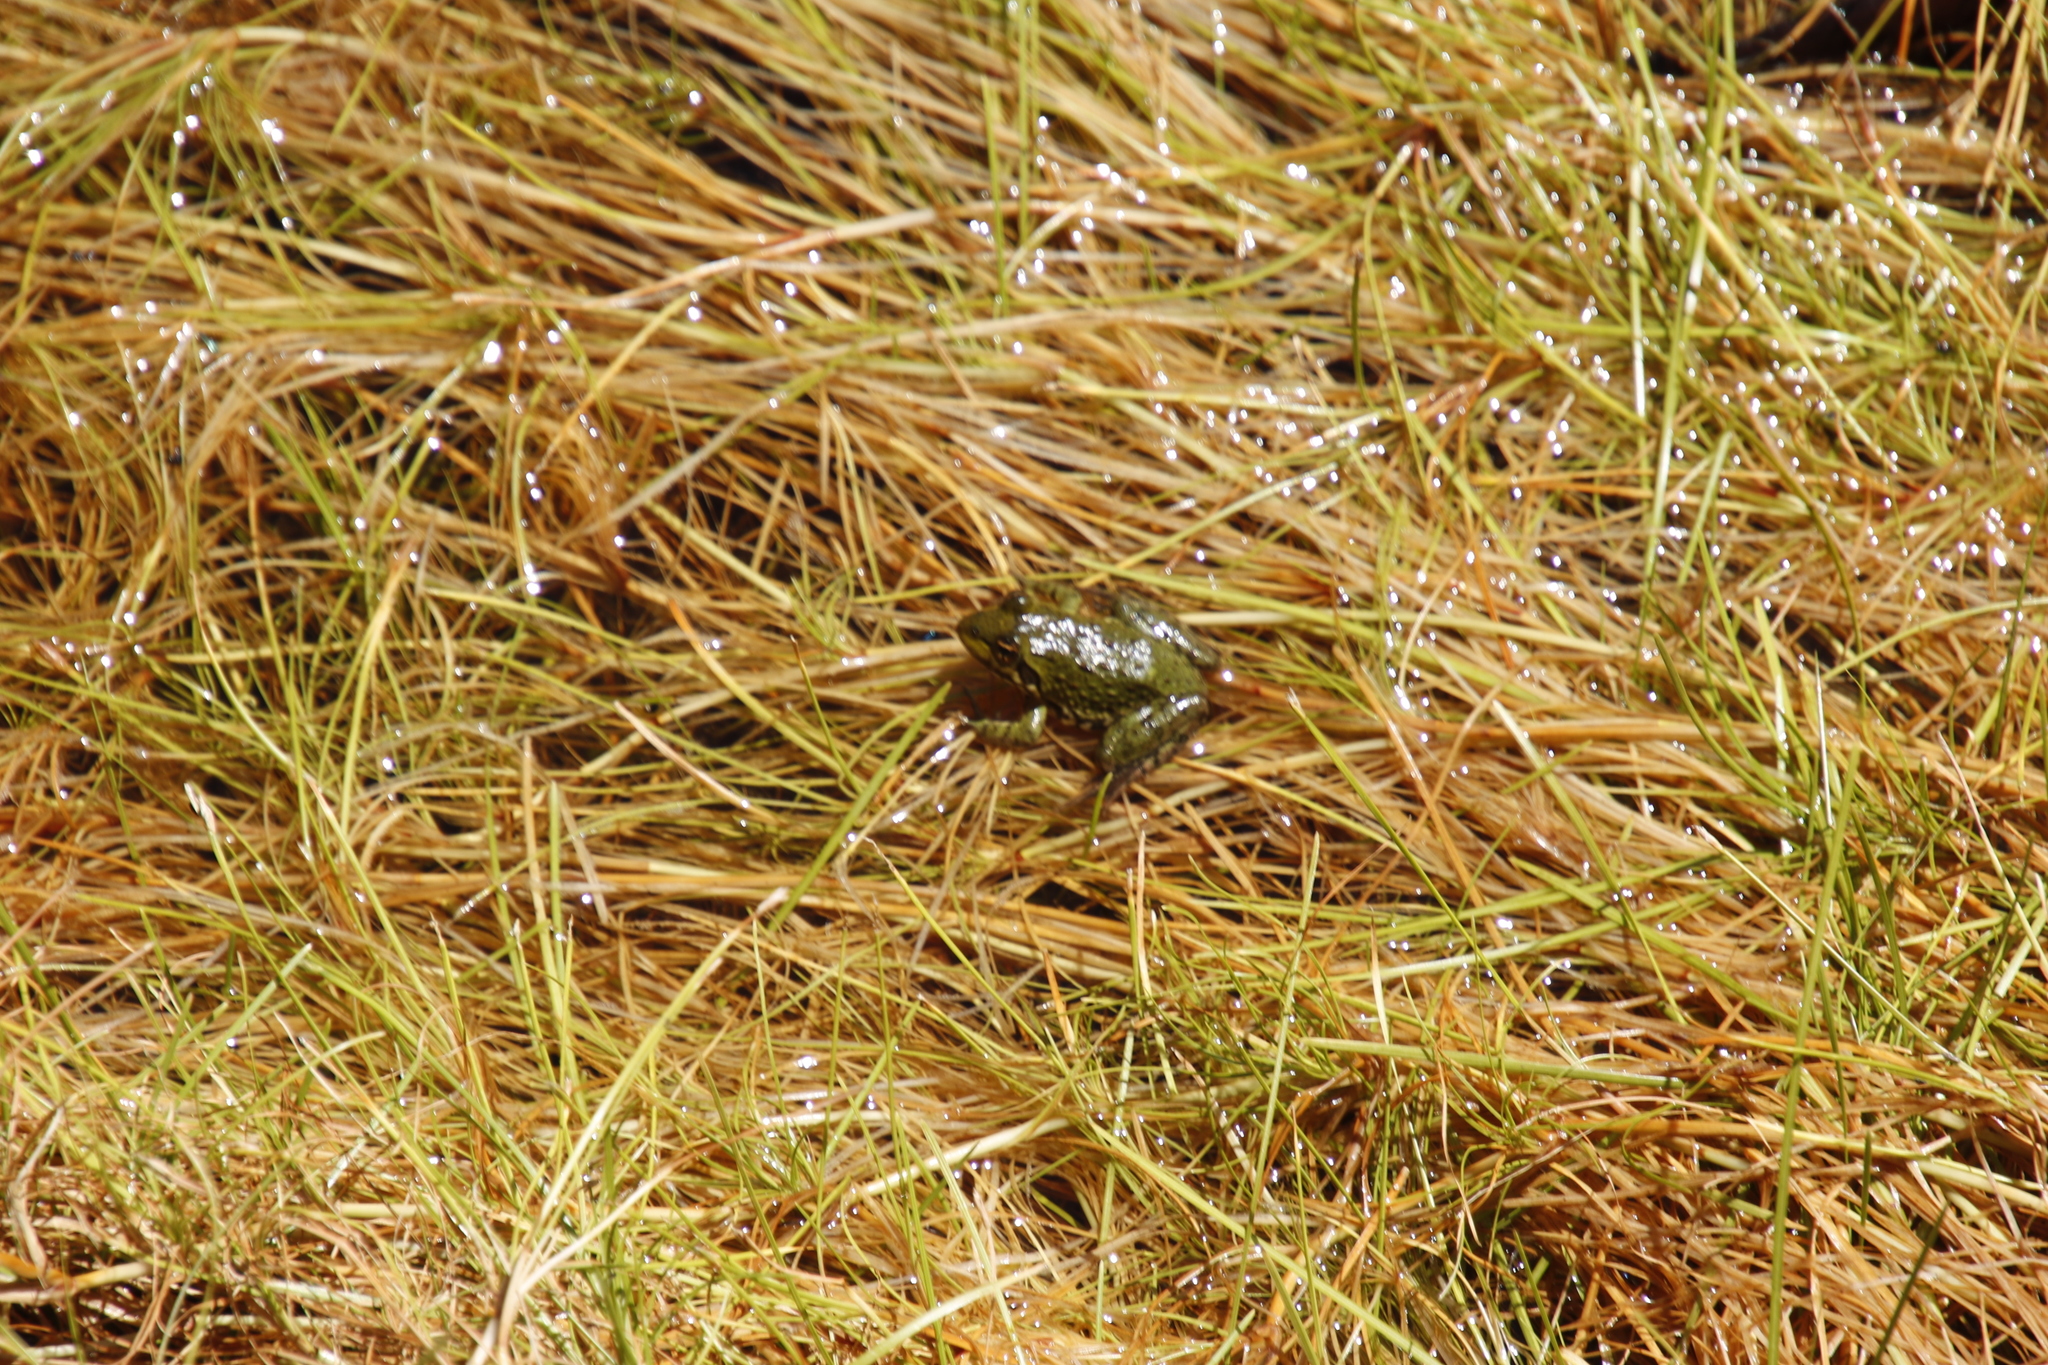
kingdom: Animalia
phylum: Chordata
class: Amphibia
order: Anura
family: Pyxicephalidae
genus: Amietia
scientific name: Amietia fuscigula
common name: Cape rana
